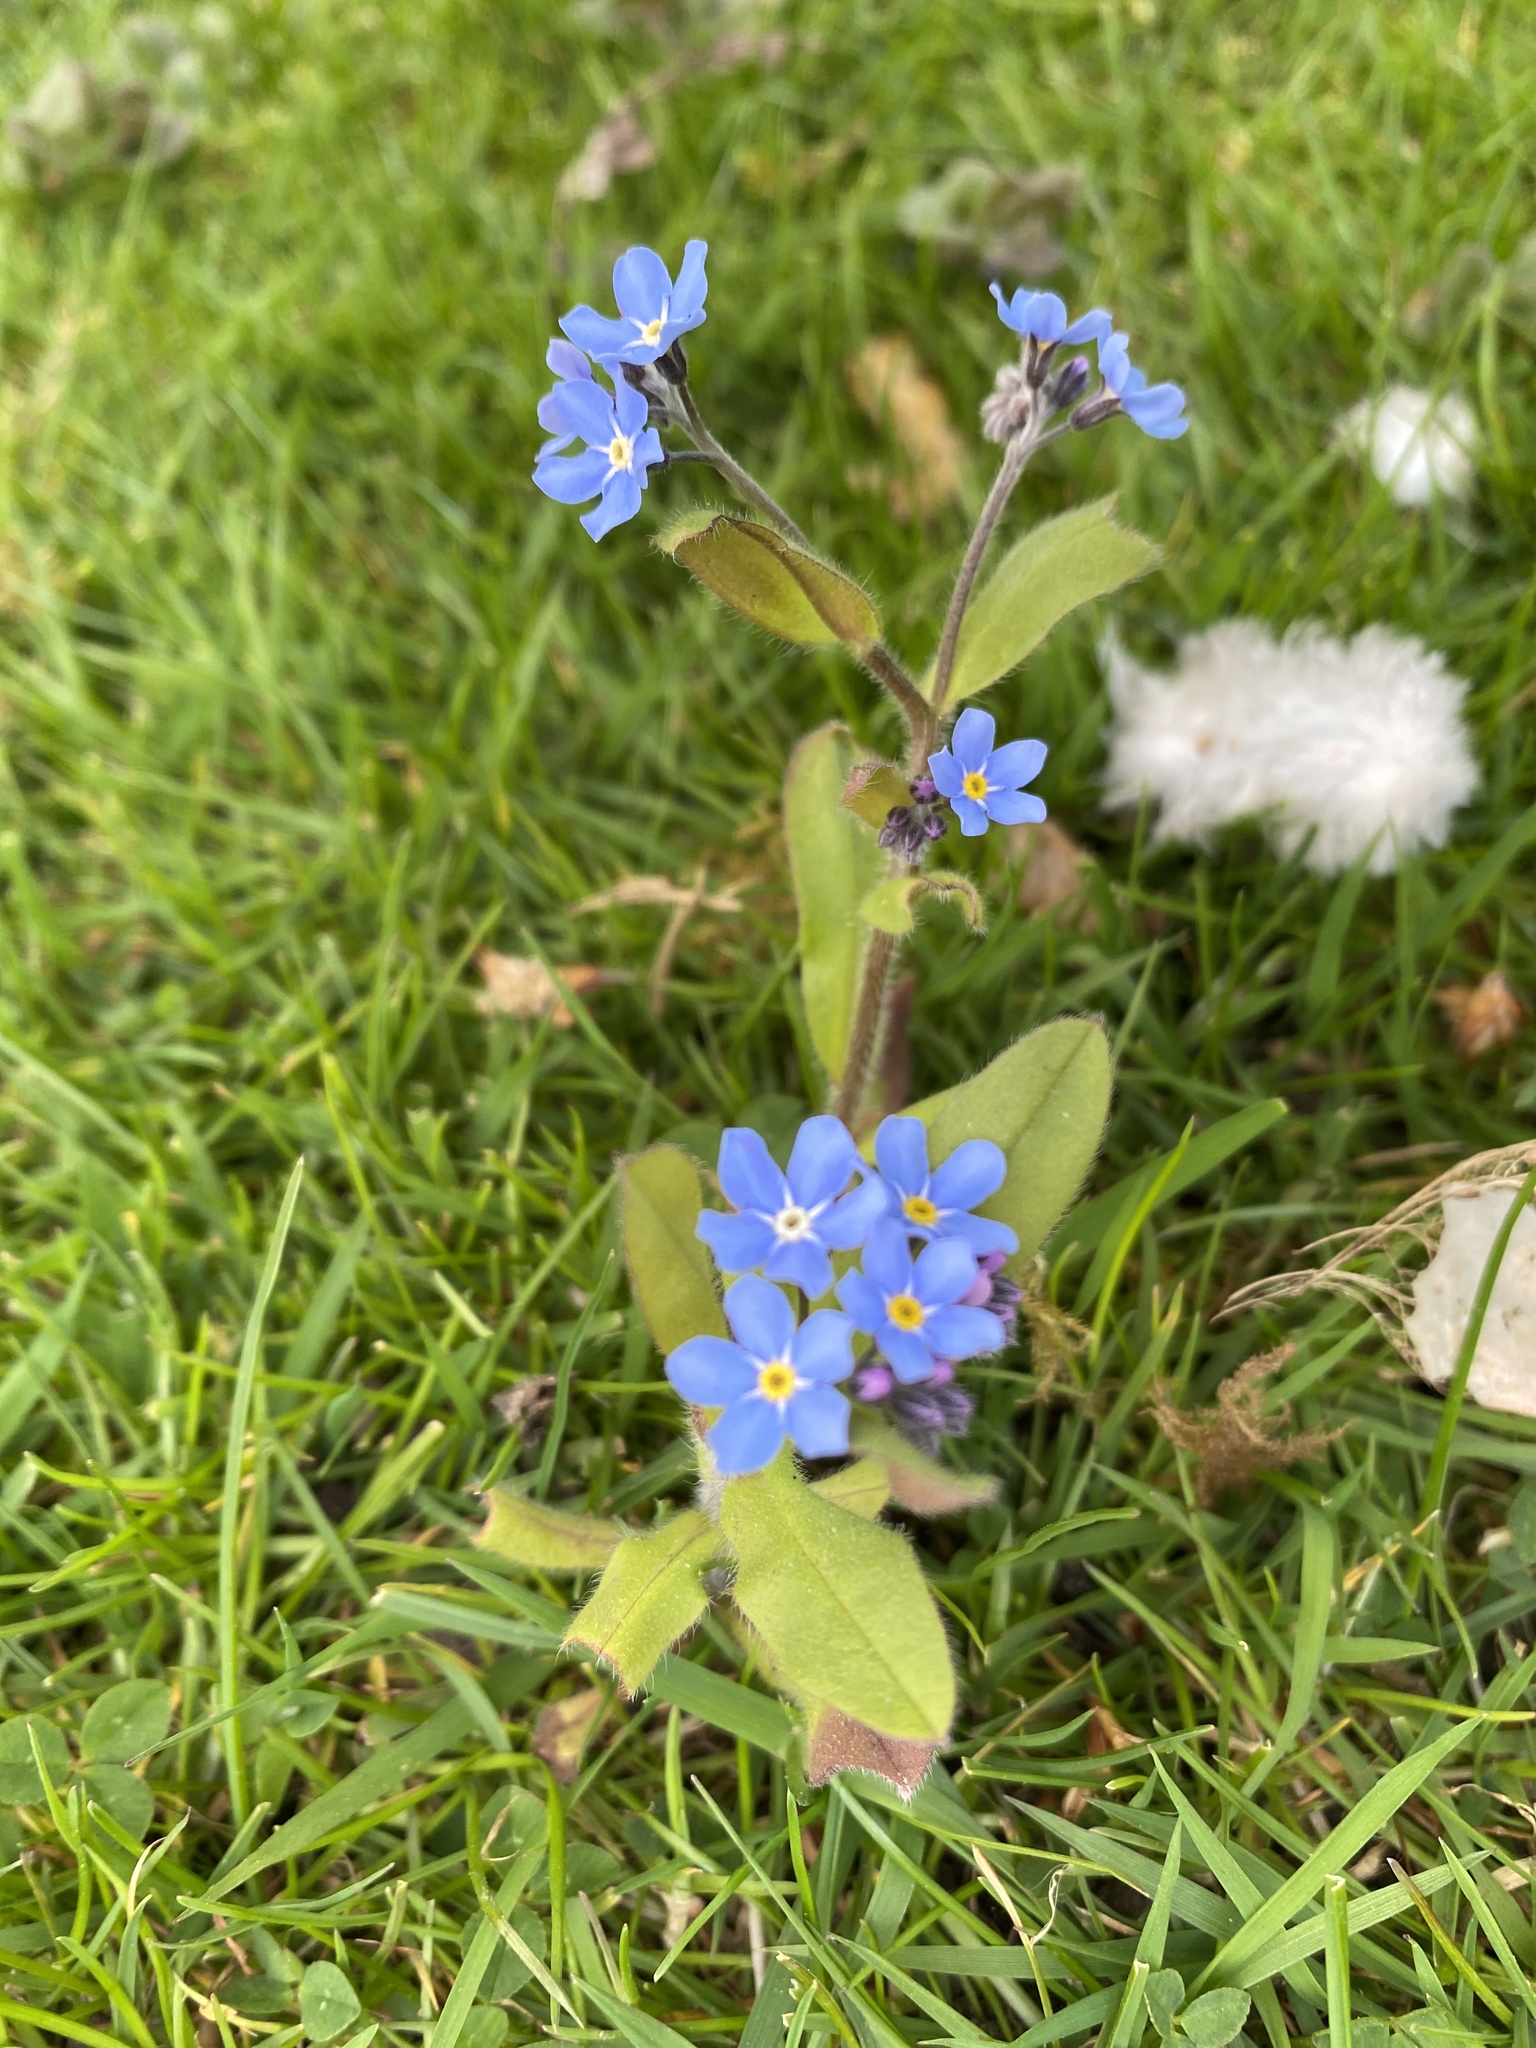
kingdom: Plantae
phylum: Tracheophyta
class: Magnoliopsida
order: Boraginales
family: Boraginaceae
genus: Myosotis
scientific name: Myosotis arvensis
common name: Field forget-me-not
